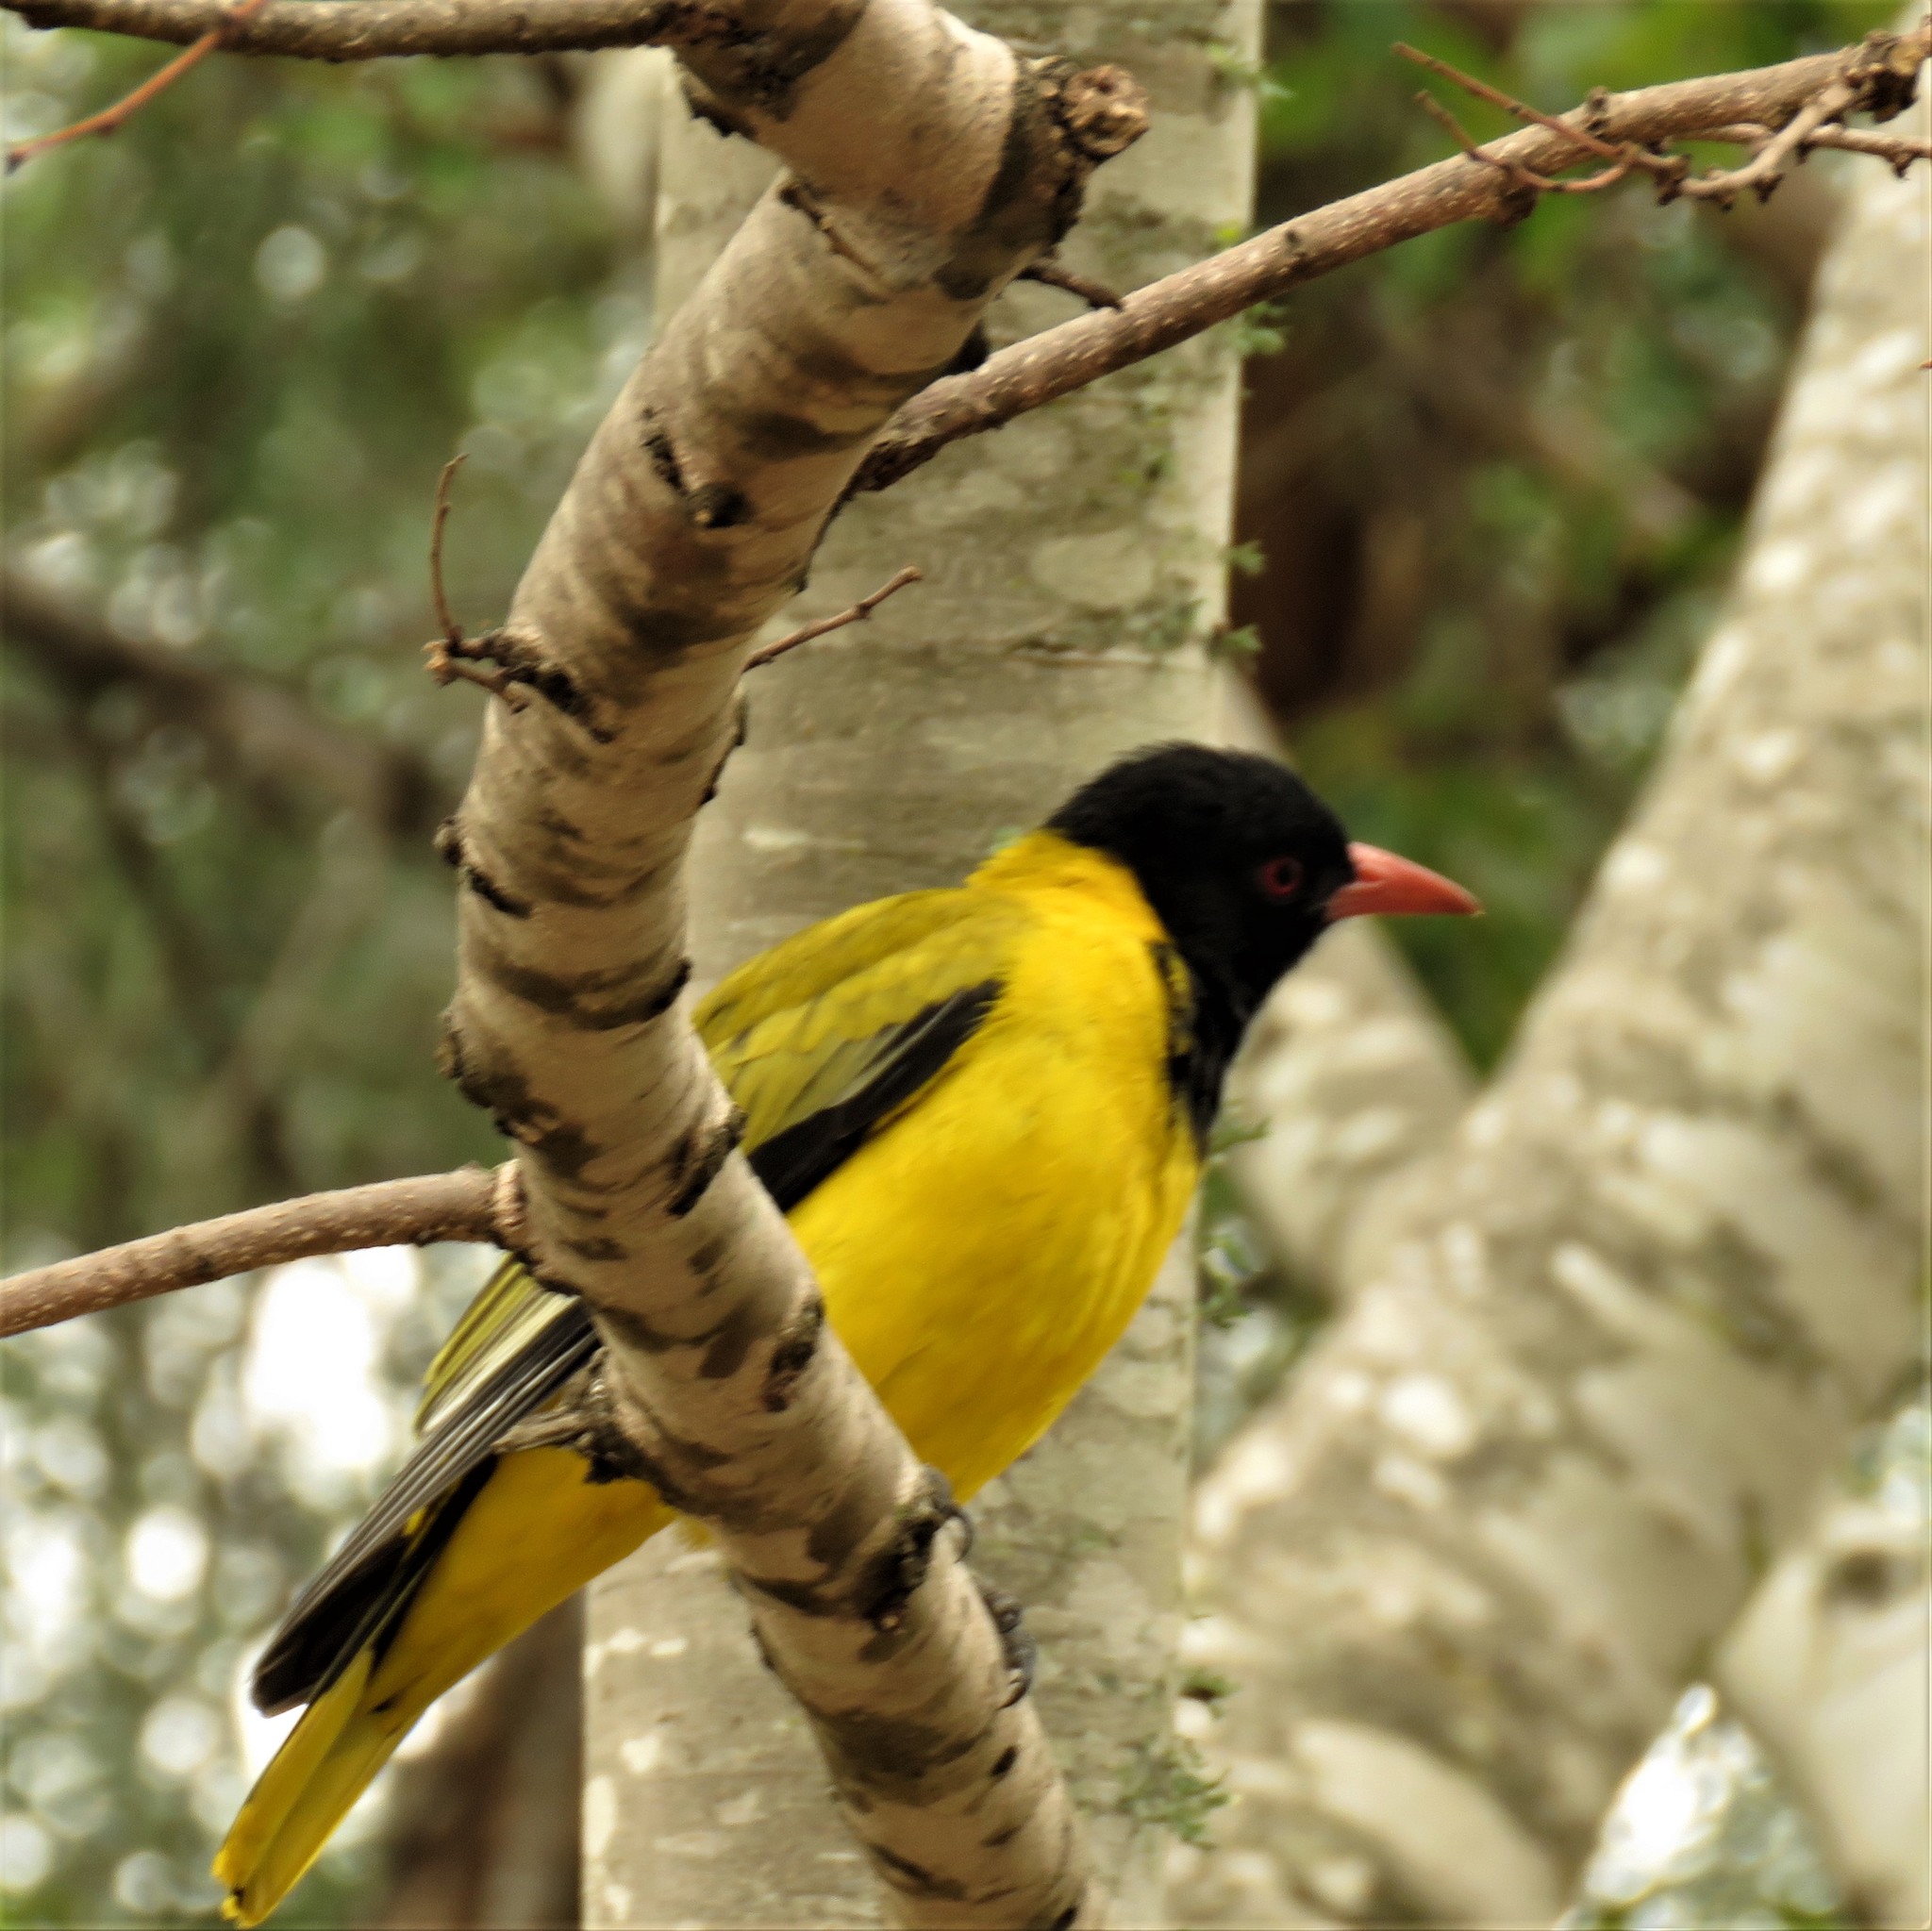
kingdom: Animalia
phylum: Chordata
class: Aves
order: Passeriformes
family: Oriolidae
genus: Oriolus
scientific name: Oriolus larvatus
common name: Black-headed oriole
